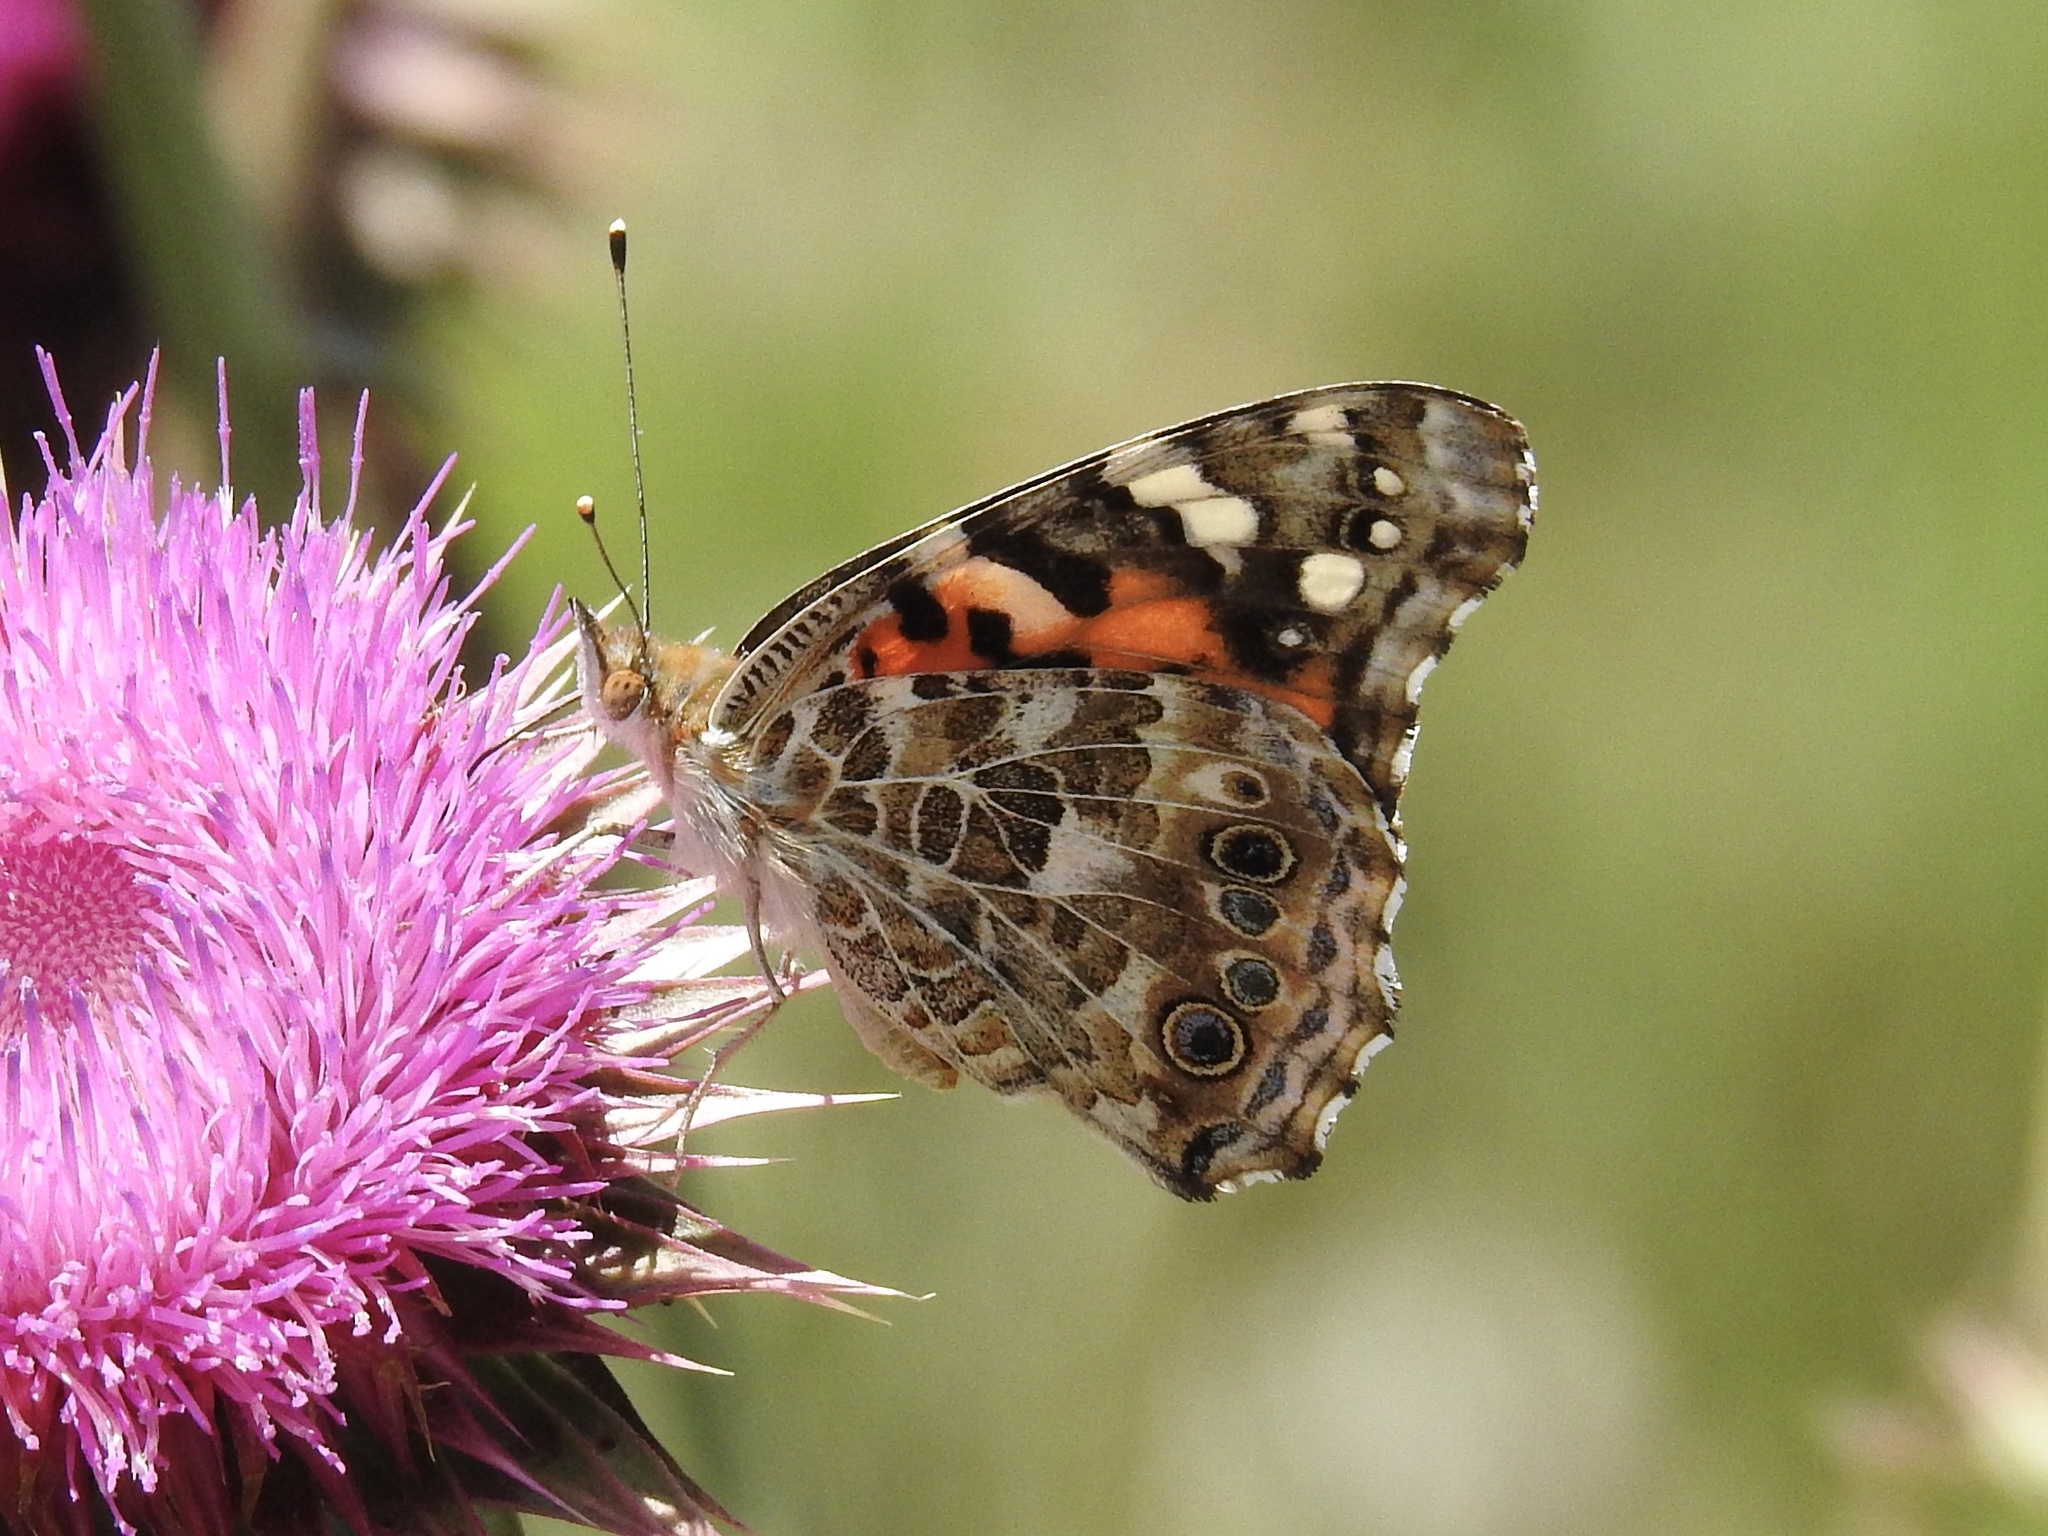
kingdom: Animalia
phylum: Arthropoda
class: Insecta
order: Lepidoptera
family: Nymphalidae
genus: Vanessa
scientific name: Vanessa cardui
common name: Painted lady
